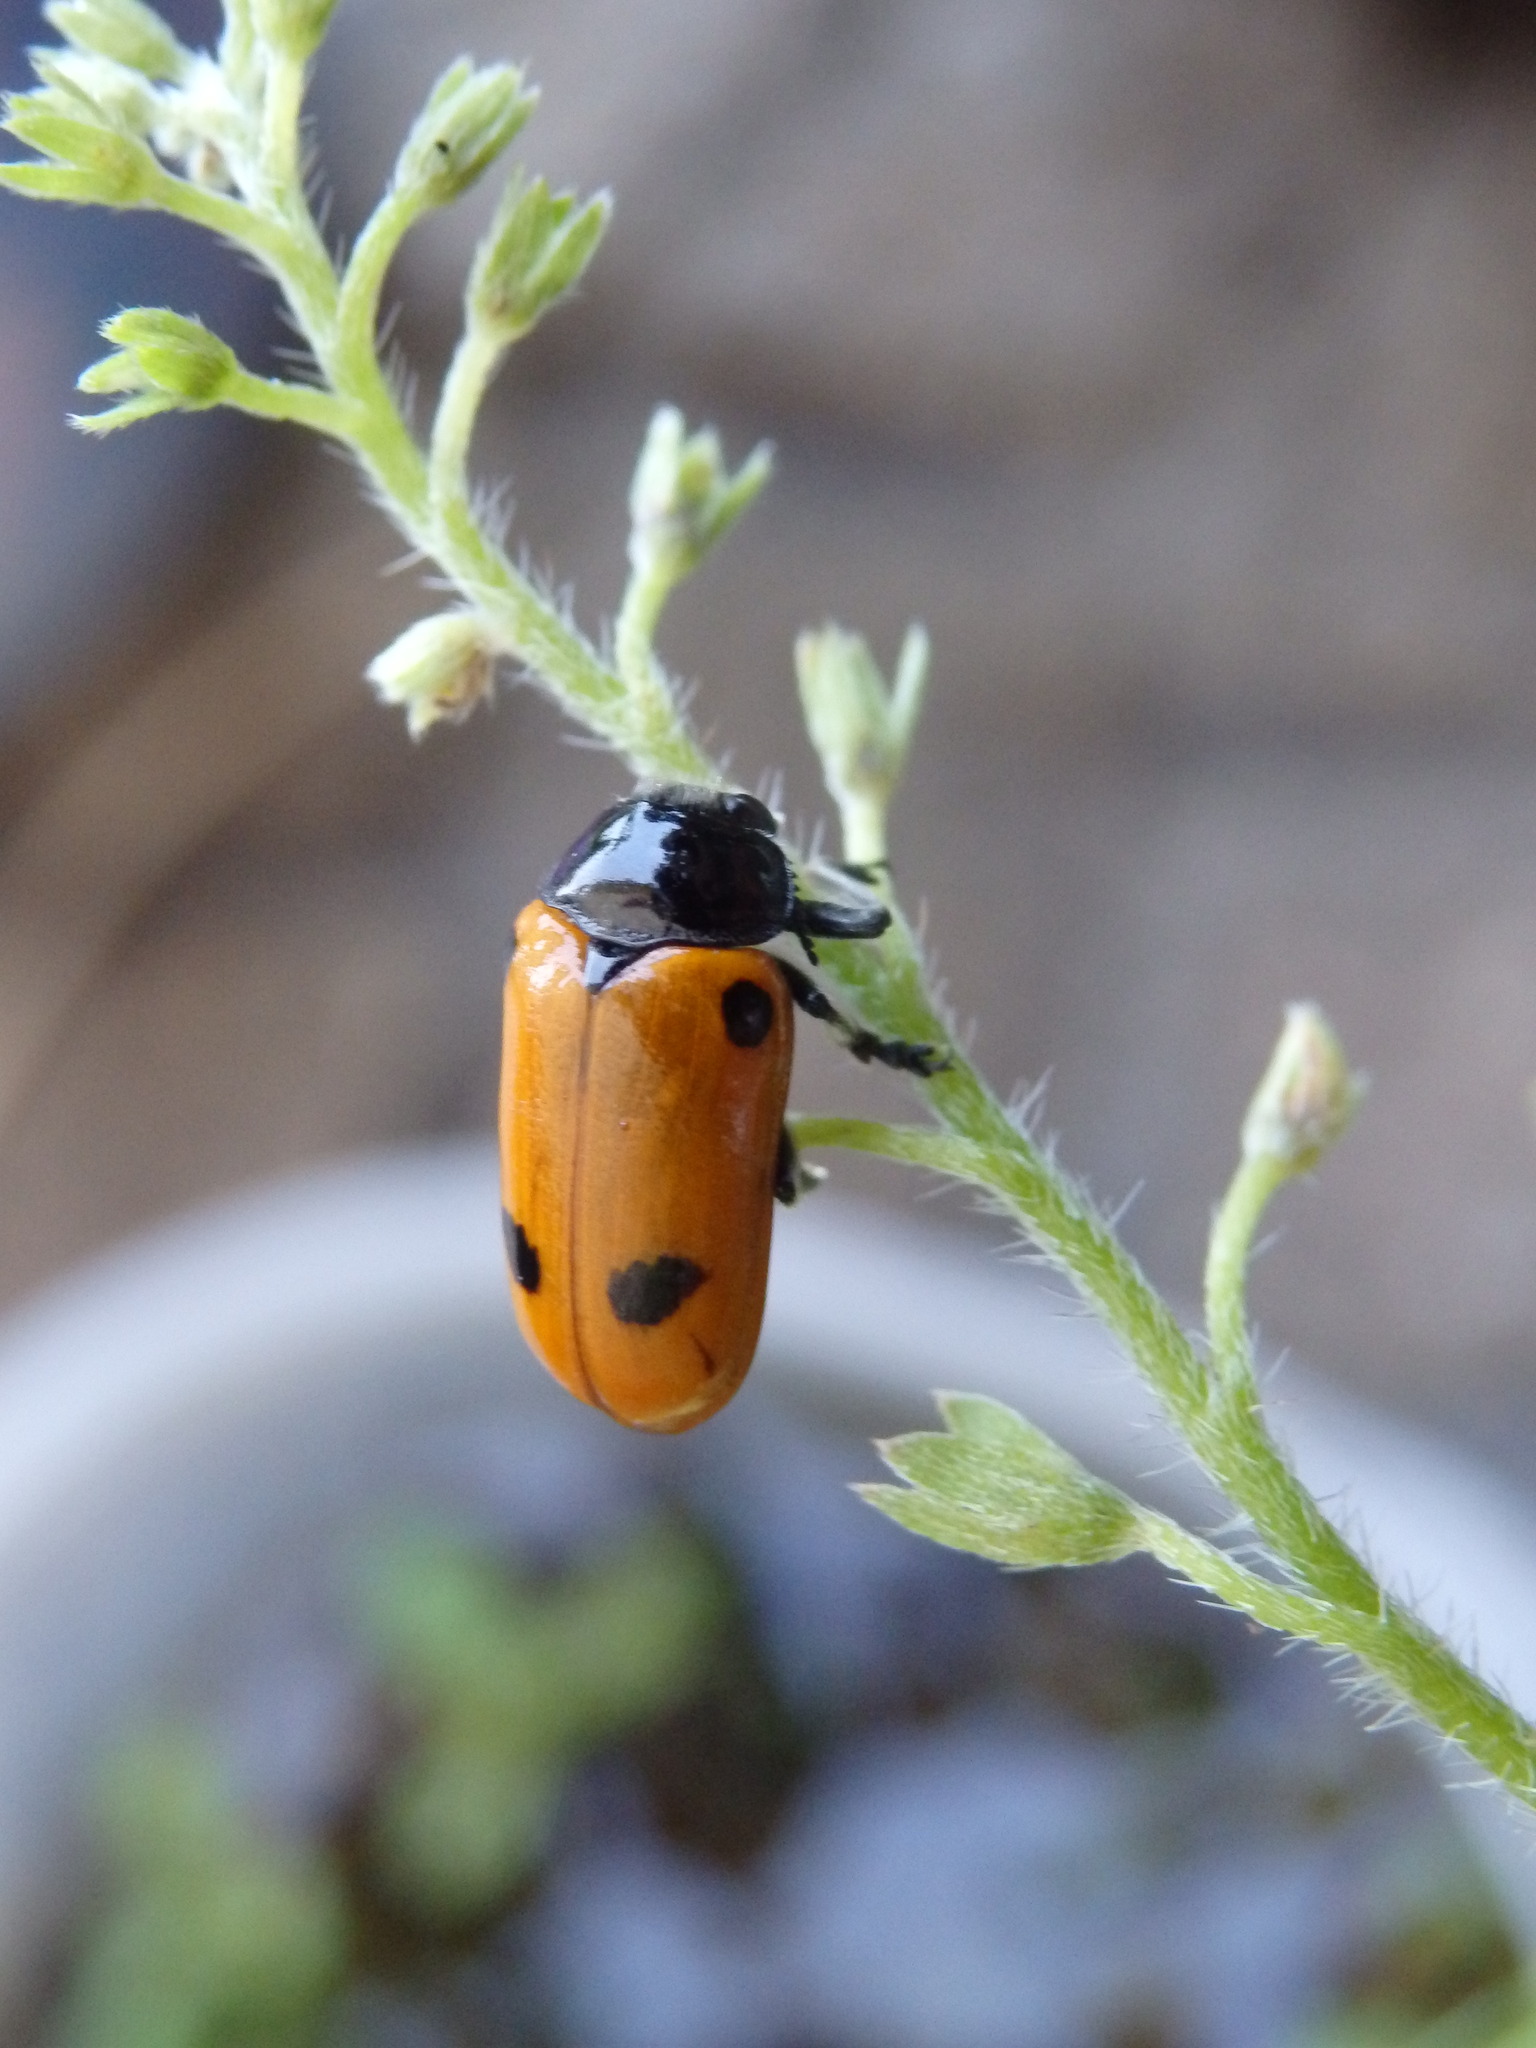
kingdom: Animalia
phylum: Arthropoda
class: Insecta
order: Coleoptera
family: Chrysomelidae
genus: Clytra
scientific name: Clytra quadripunctata
